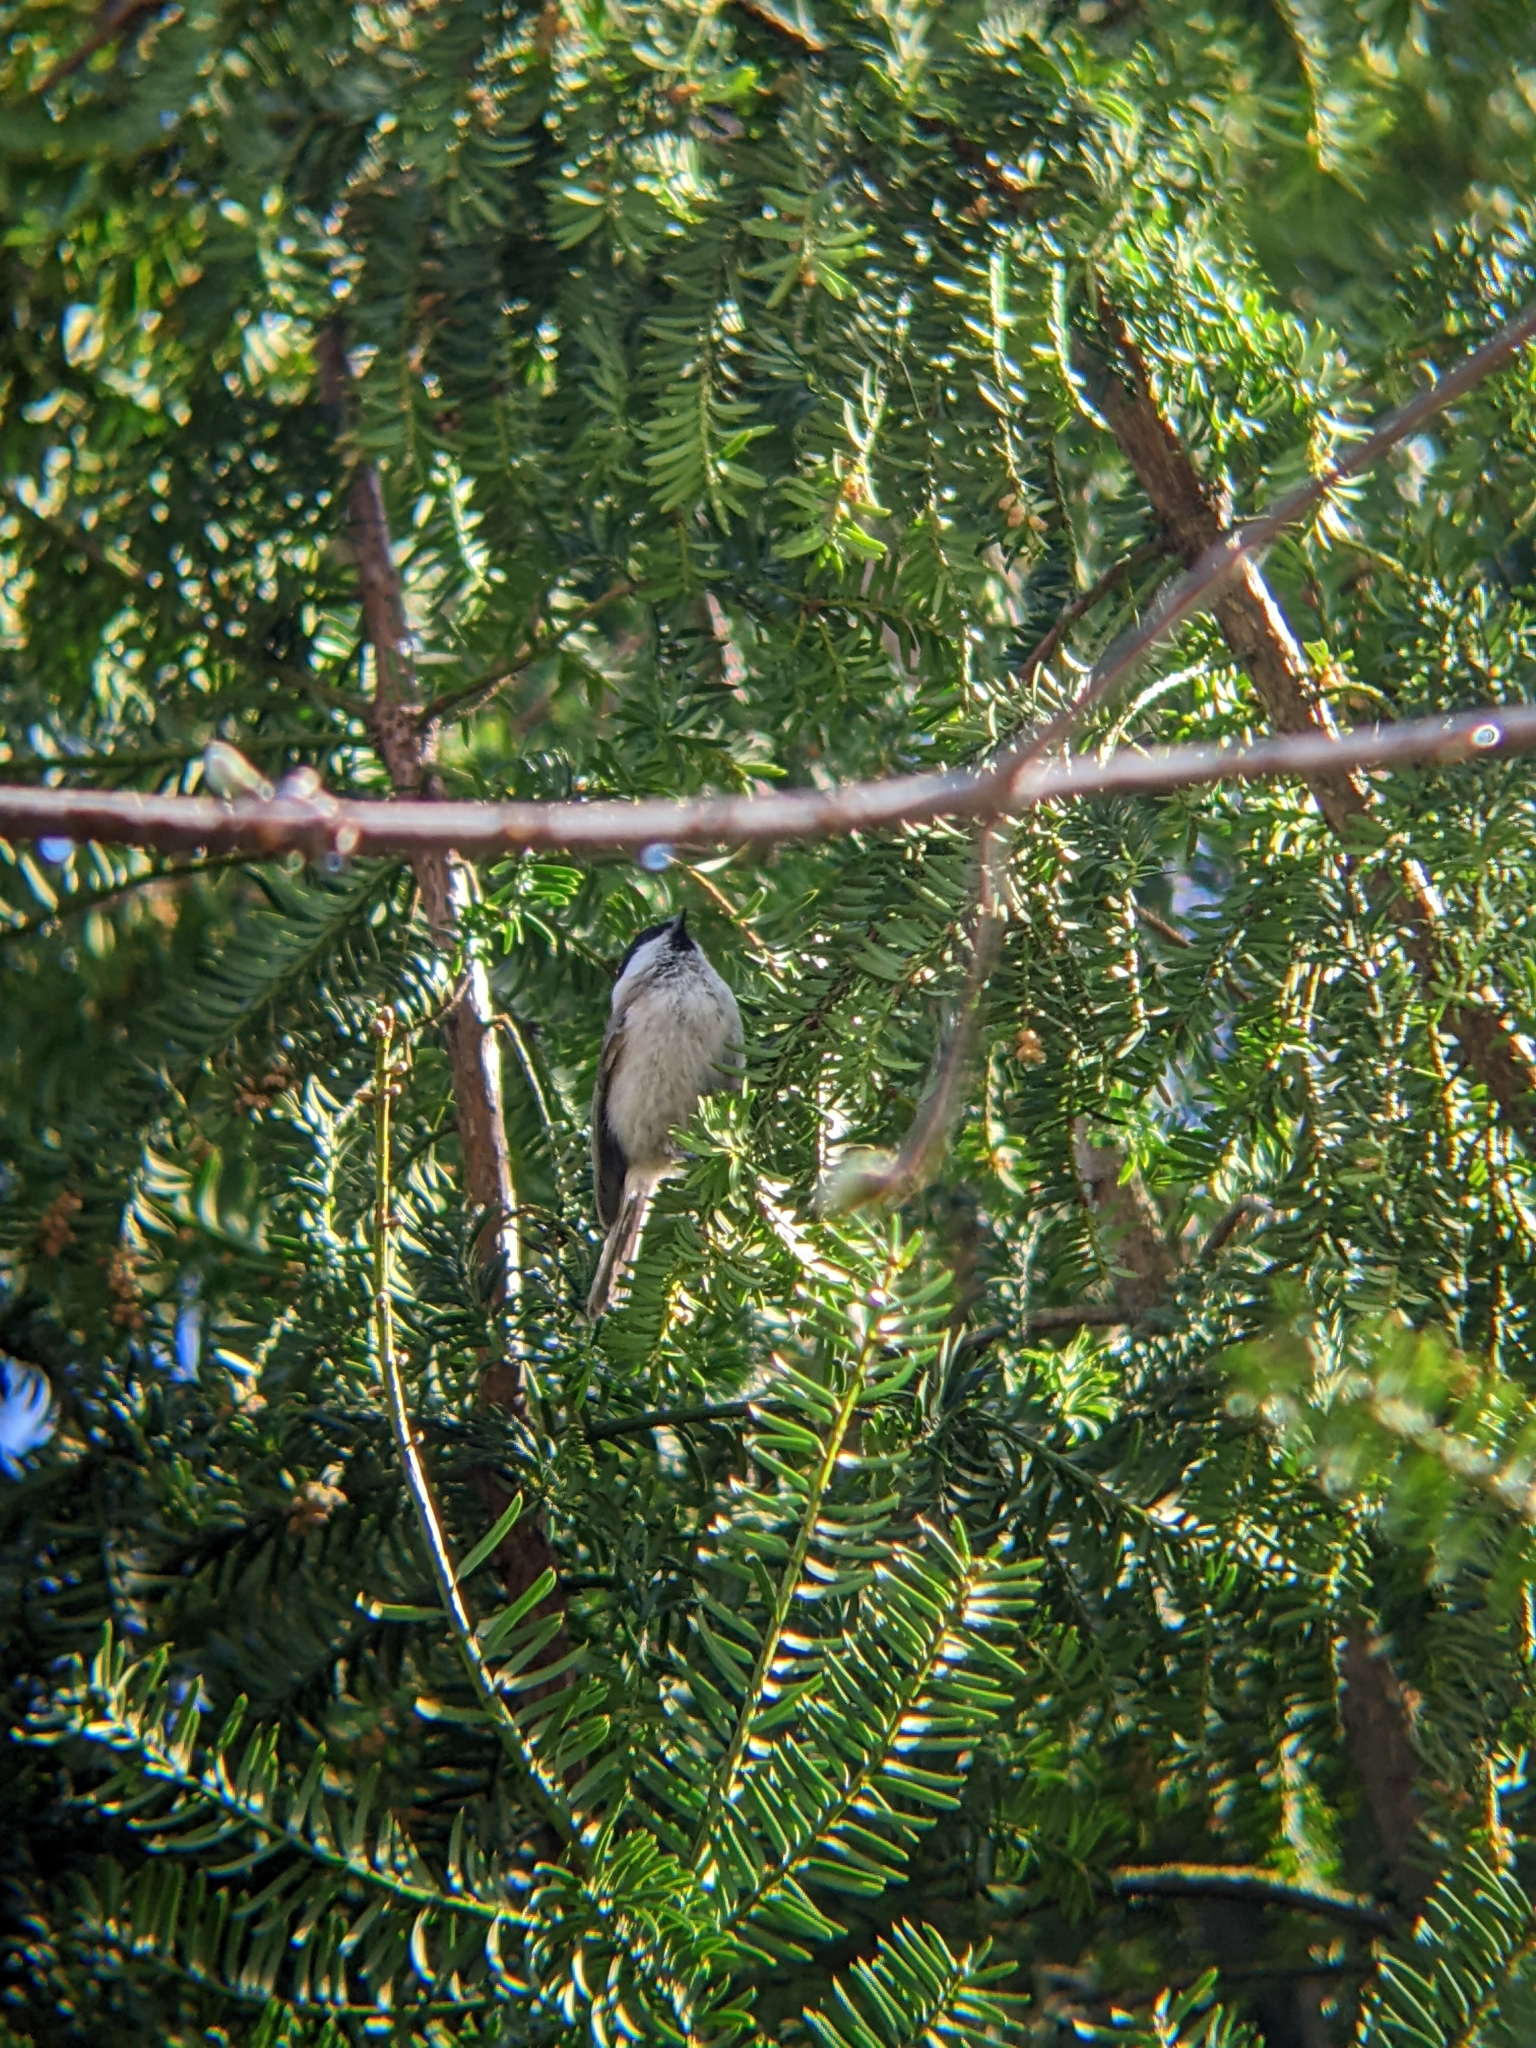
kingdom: Animalia
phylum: Chordata
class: Aves
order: Passeriformes
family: Paridae
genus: Poecile
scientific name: Poecile palustris
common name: Marsh tit
